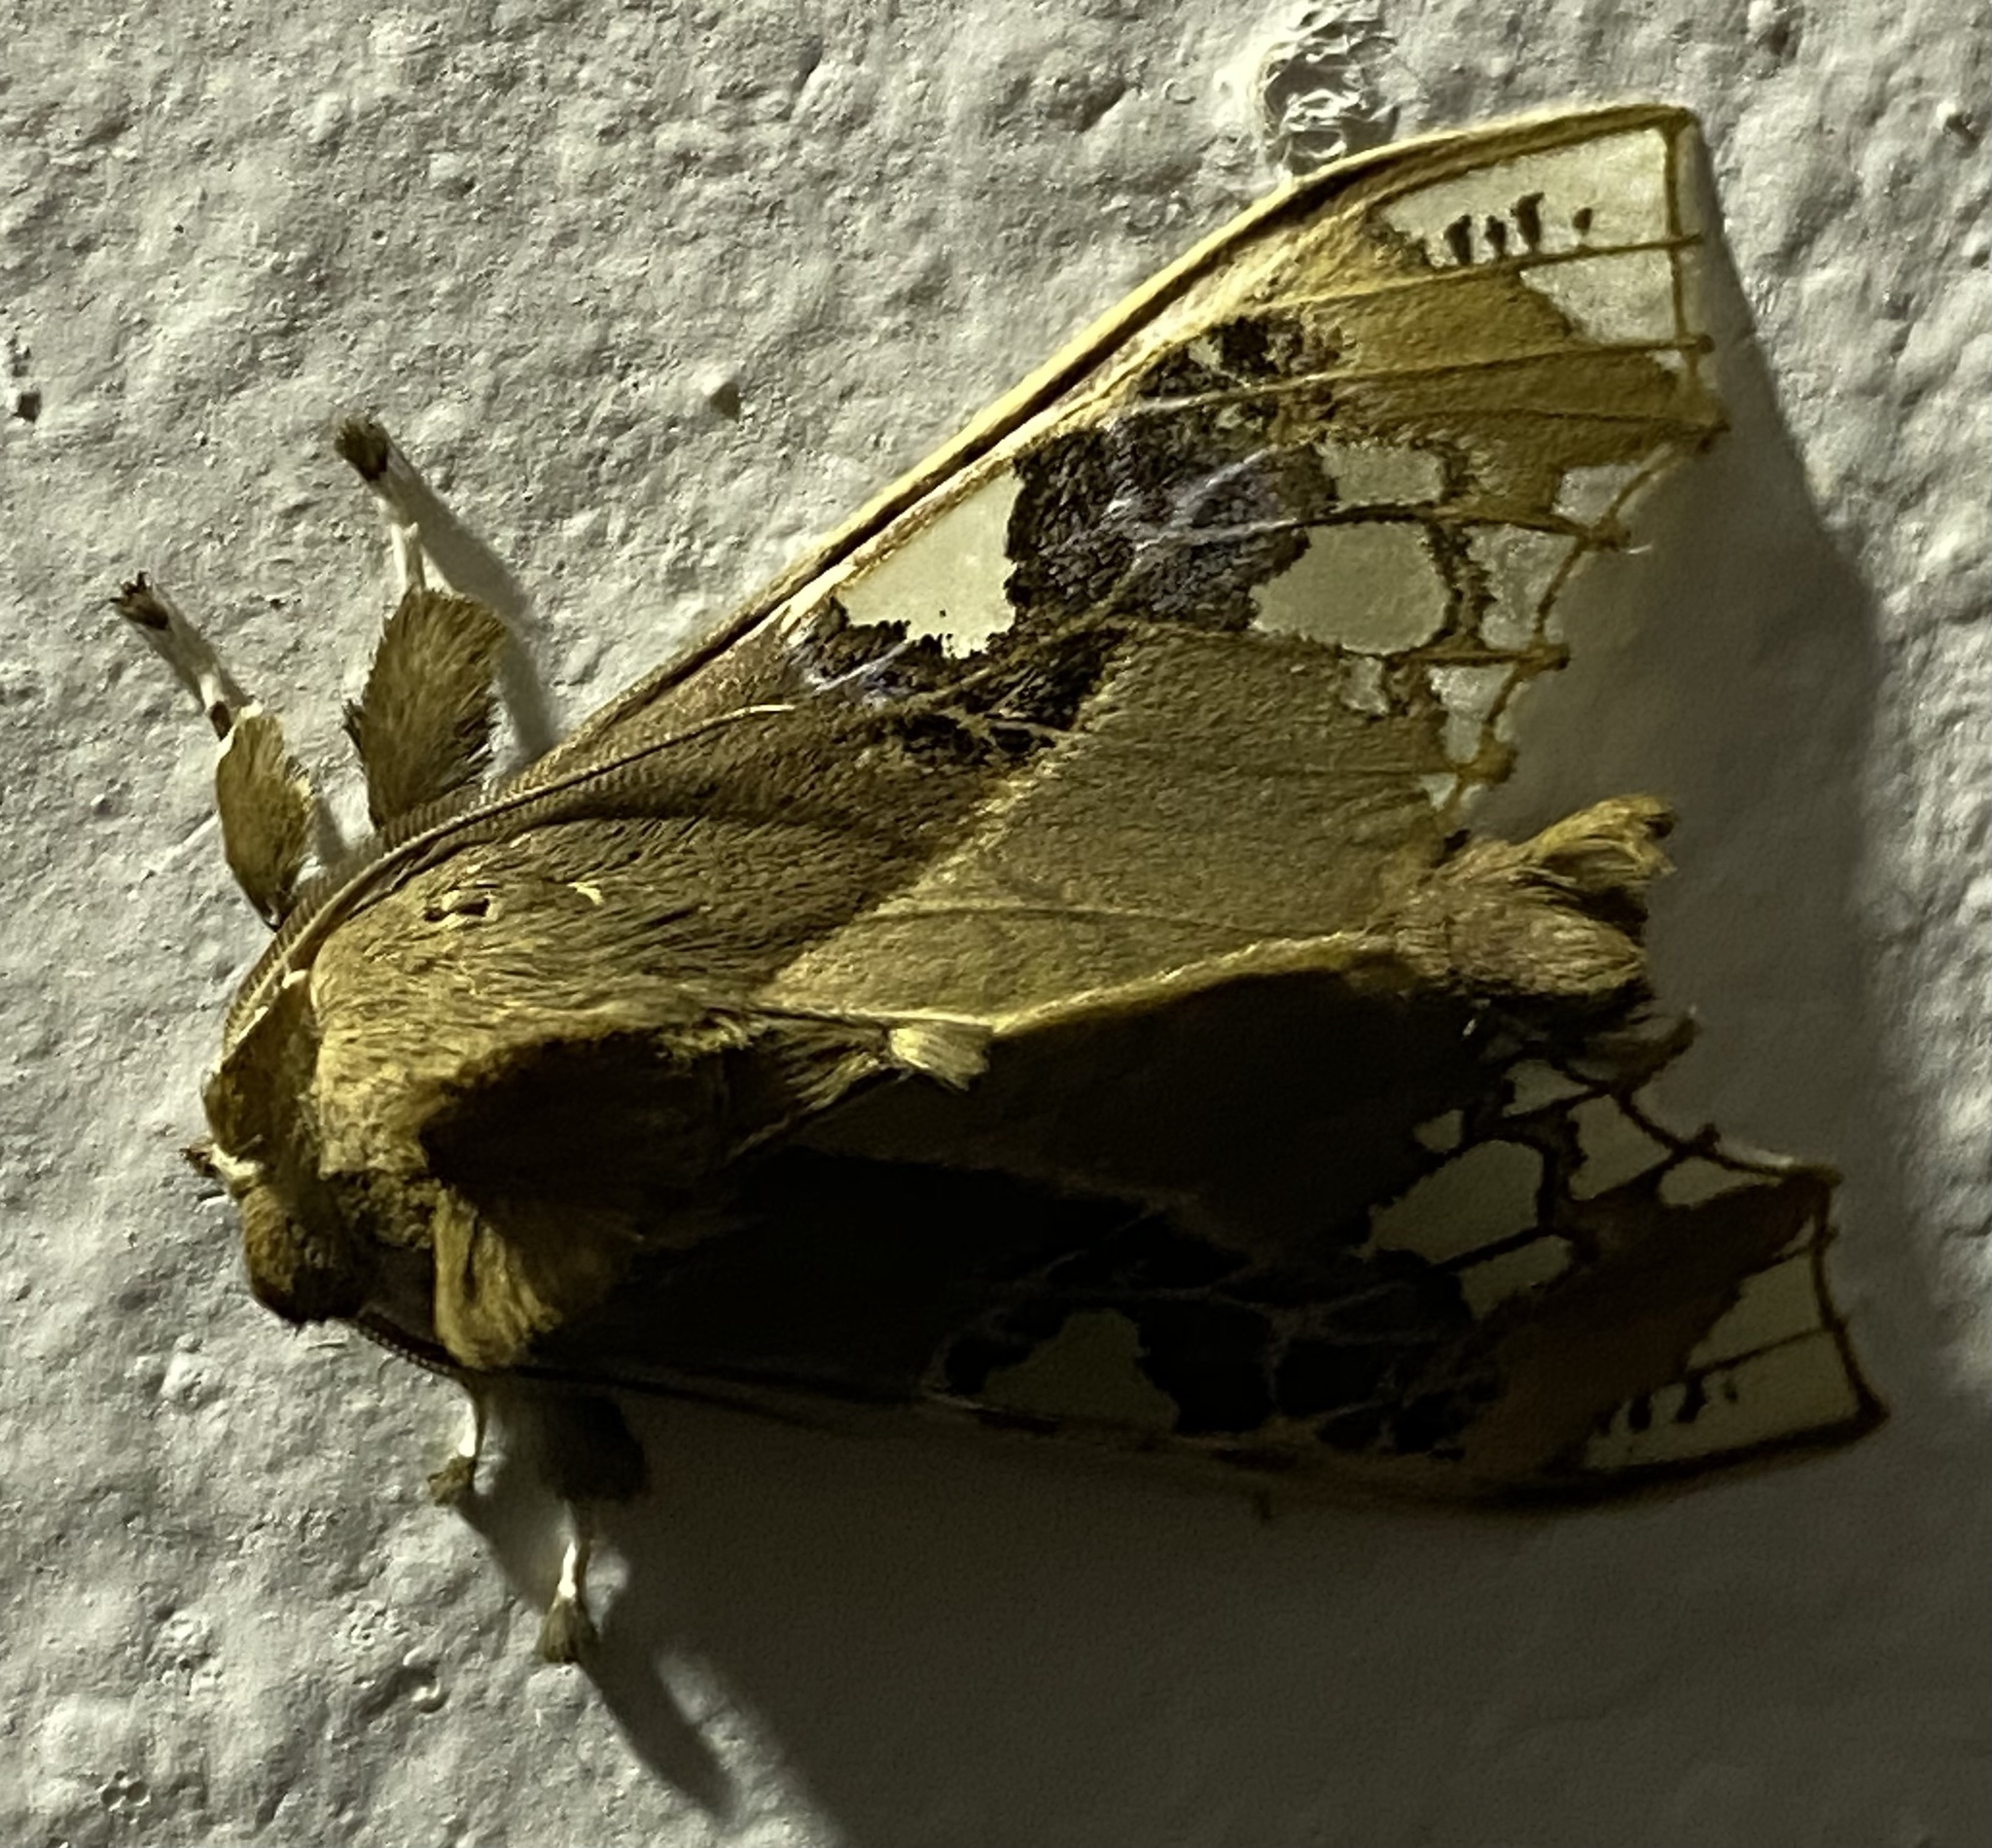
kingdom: Animalia
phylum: Arthropoda
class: Insecta
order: Lepidoptera
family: Erebidae
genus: Parathyris
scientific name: Parathyris cedonulli
